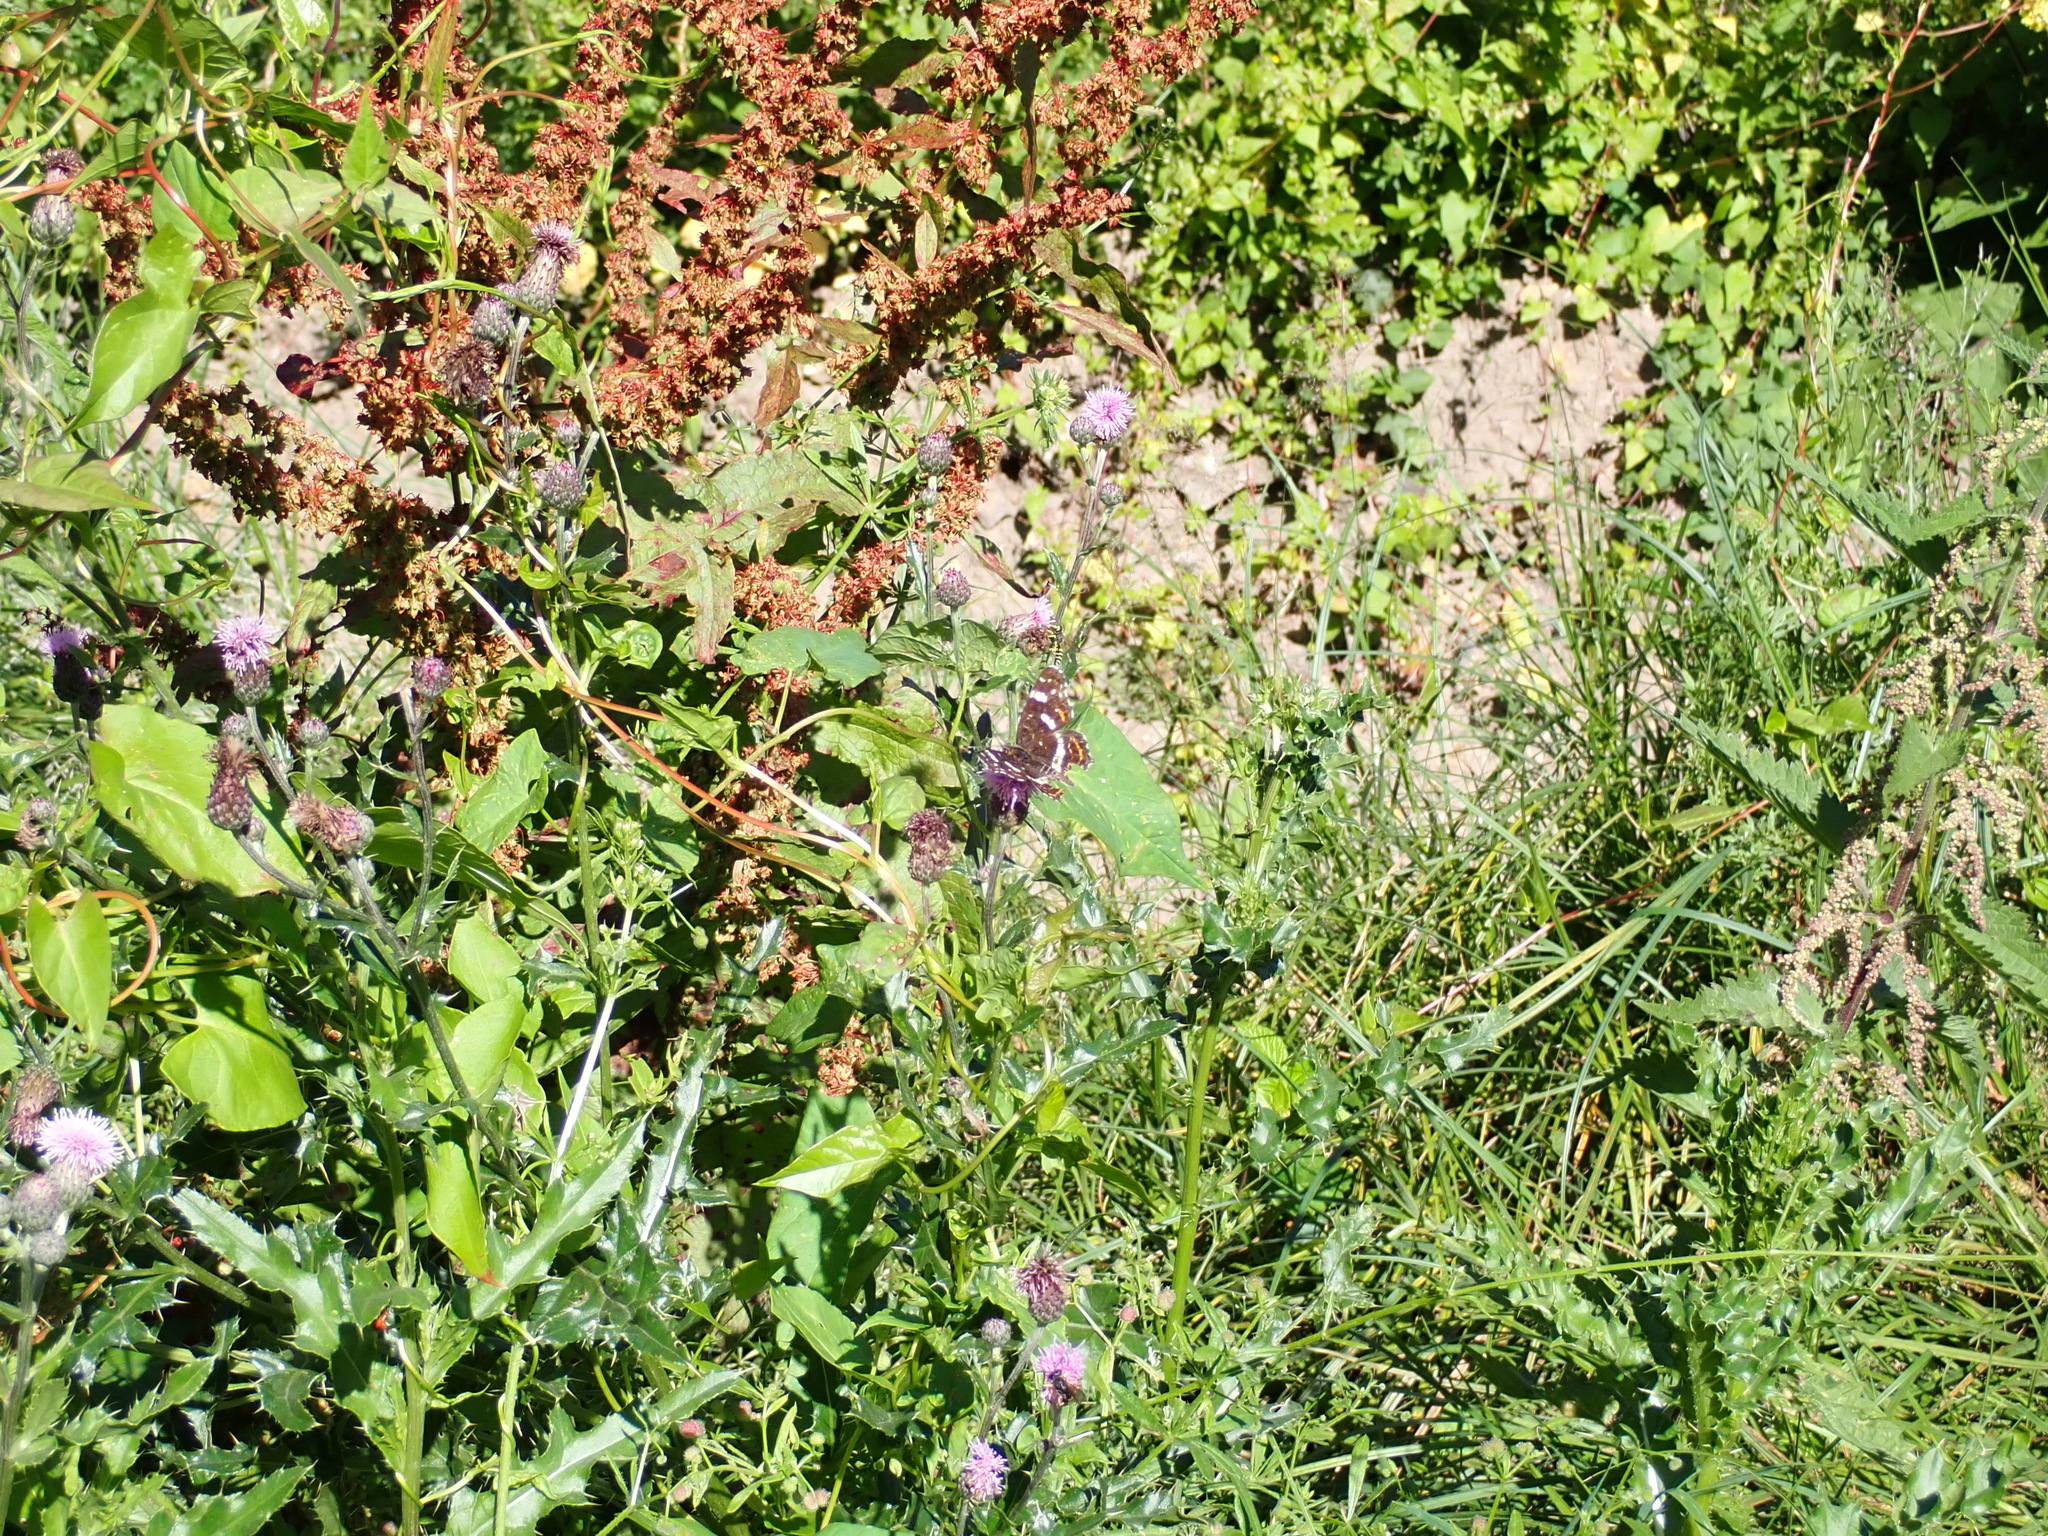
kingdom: Animalia
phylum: Arthropoda
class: Insecta
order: Lepidoptera
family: Nymphalidae
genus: Araschnia
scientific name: Araschnia levana
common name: Map butterfly
